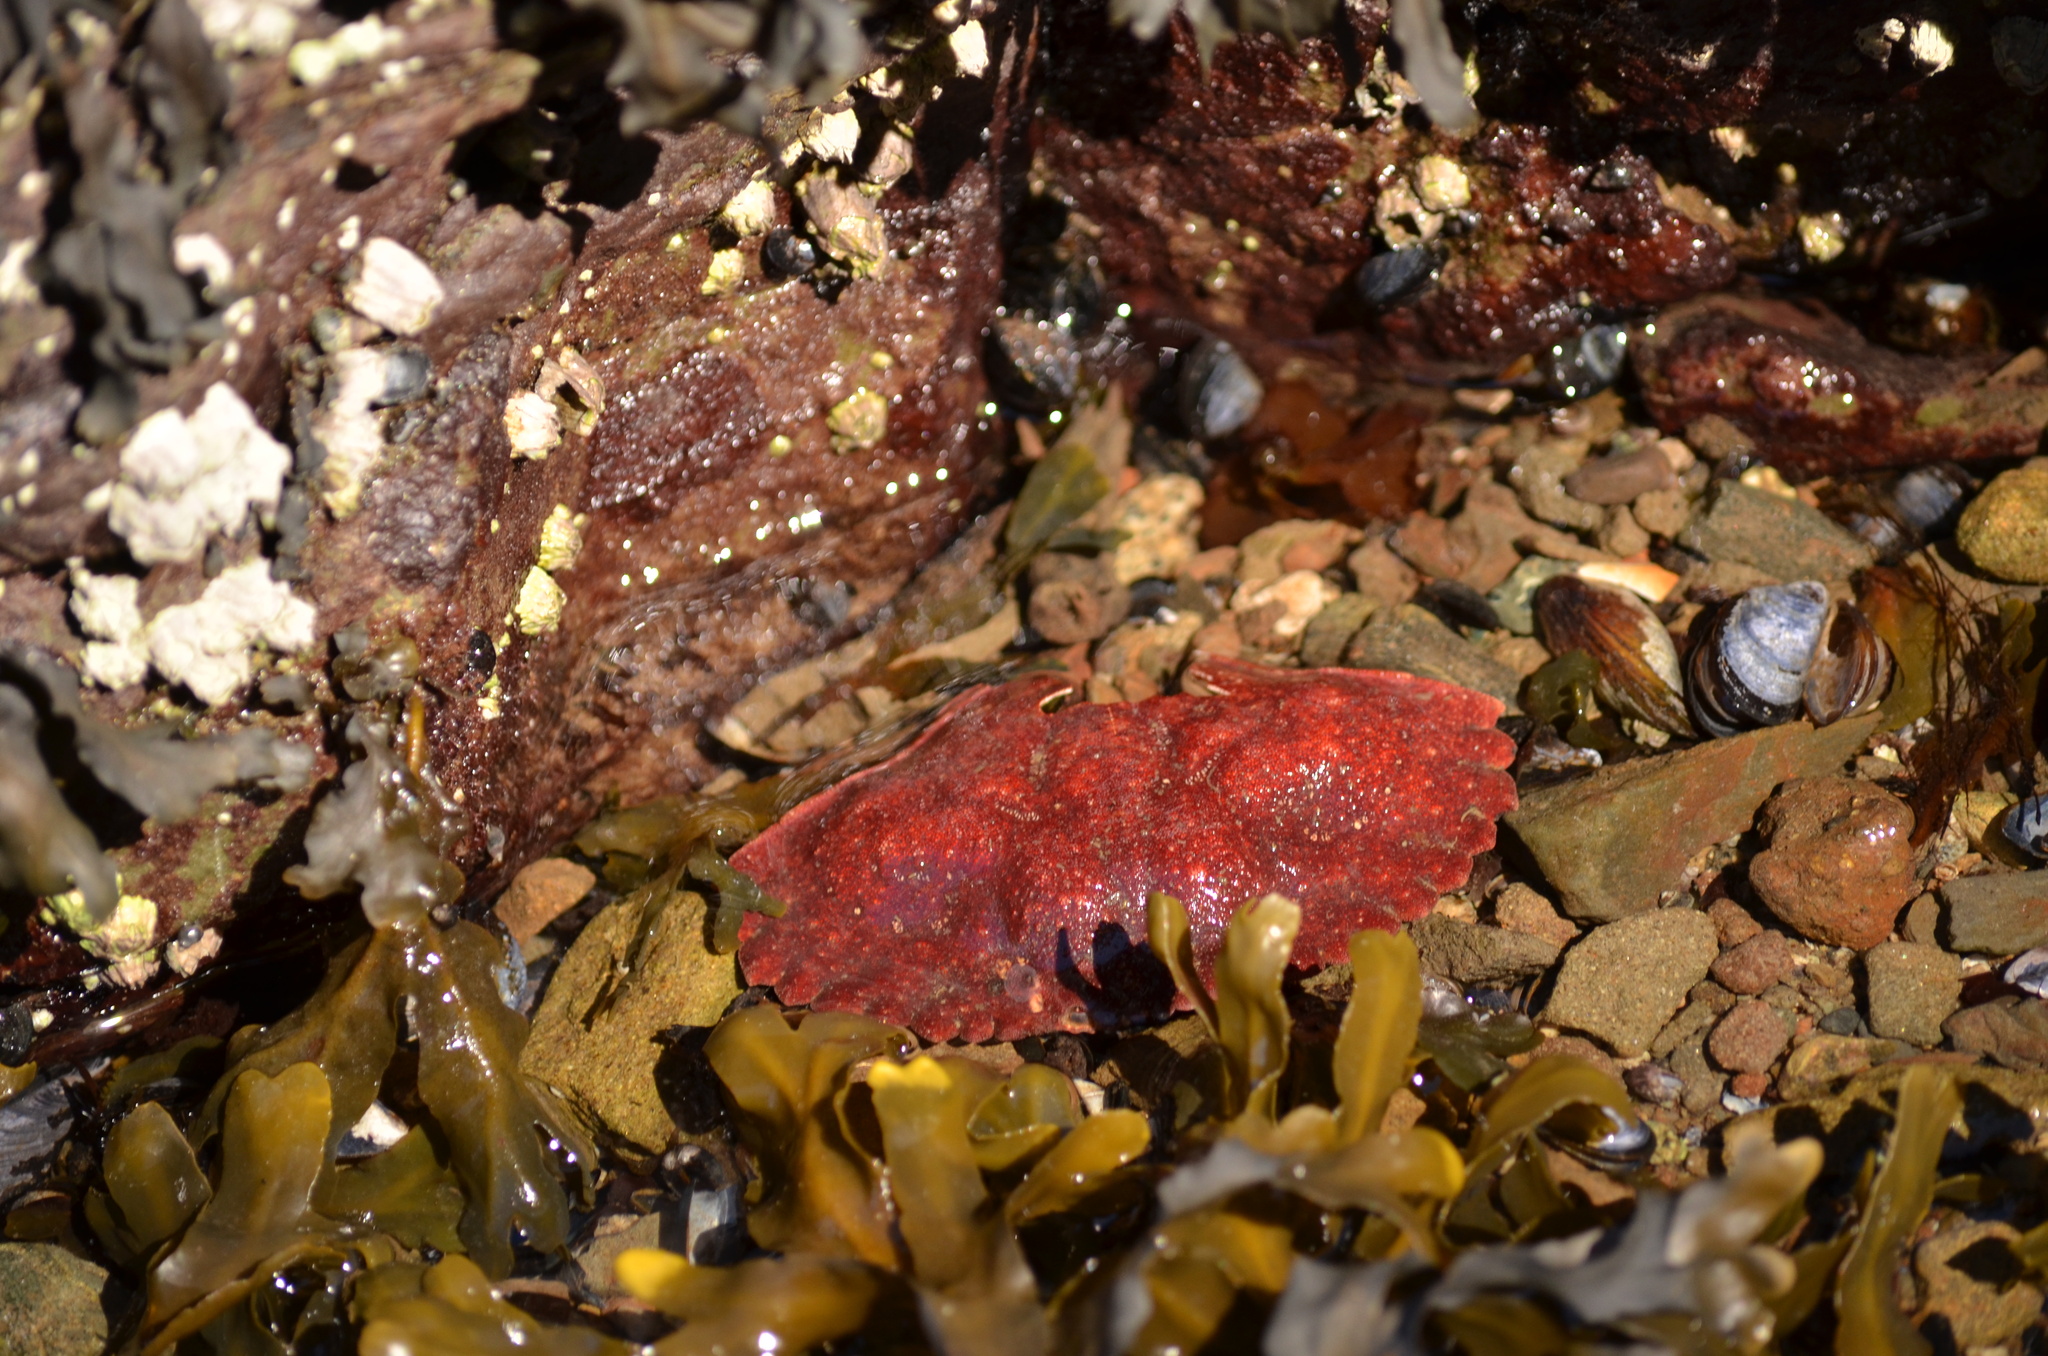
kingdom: Animalia
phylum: Arthropoda
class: Malacostraca
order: Decapoda
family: Cancridae
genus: Cancer
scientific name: Cancer productus
